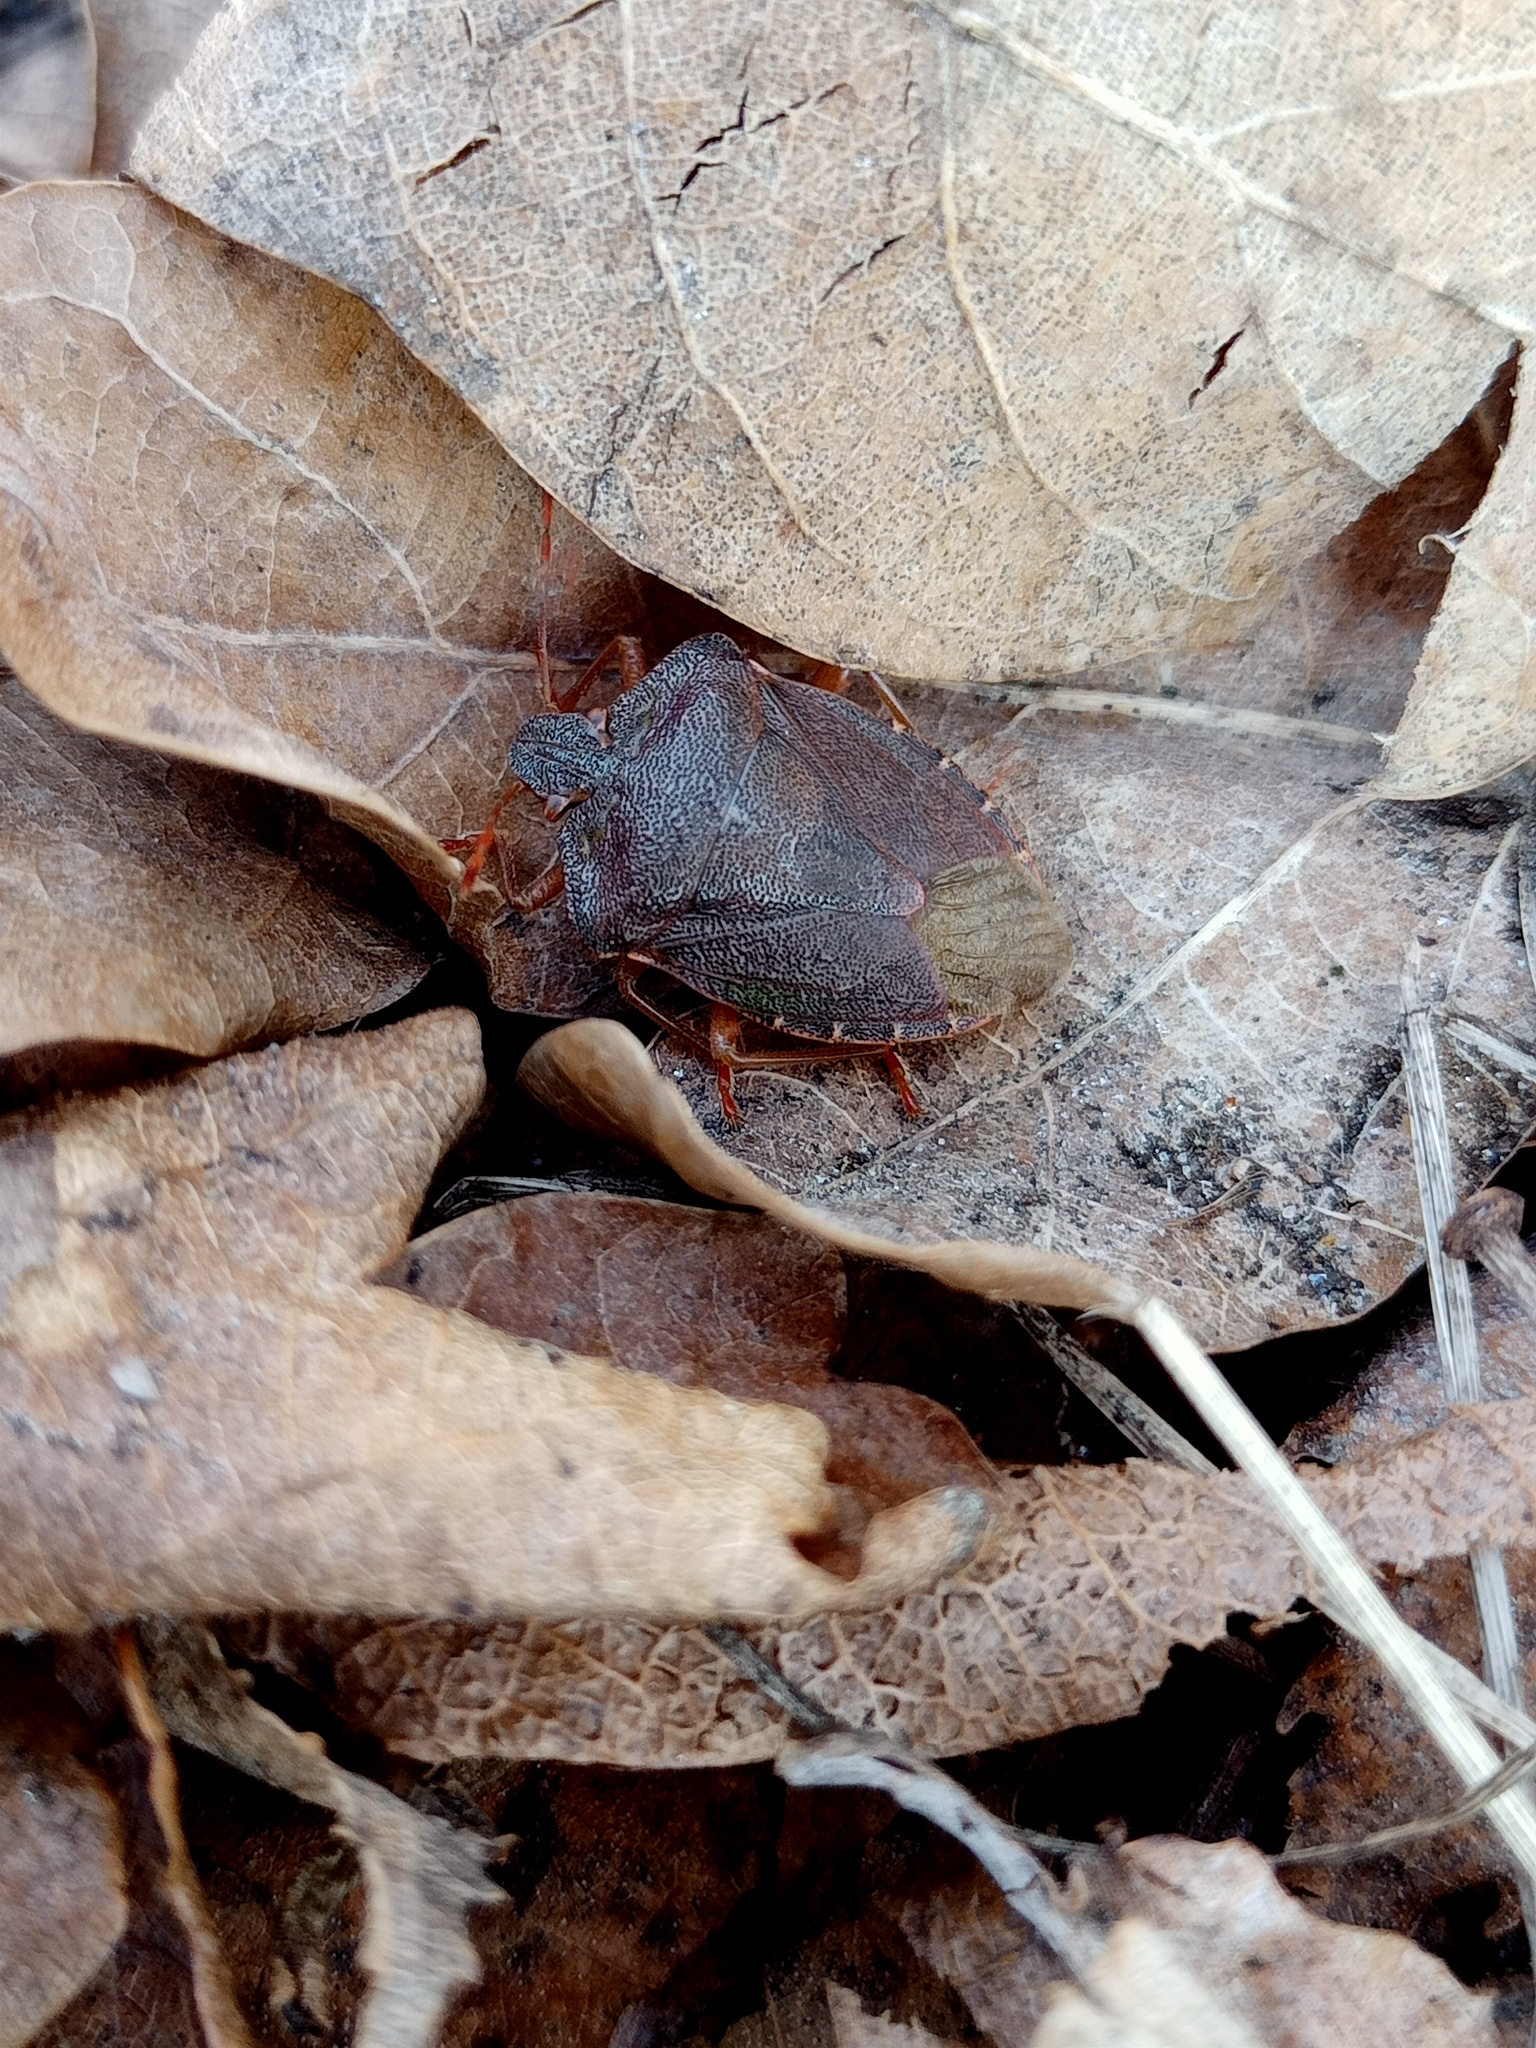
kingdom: Animalia
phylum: Arthropoda
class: Insecta
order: Hemiptera
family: Pentatomidae
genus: Palomena
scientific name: Palomena prasina
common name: Green shieldbug
